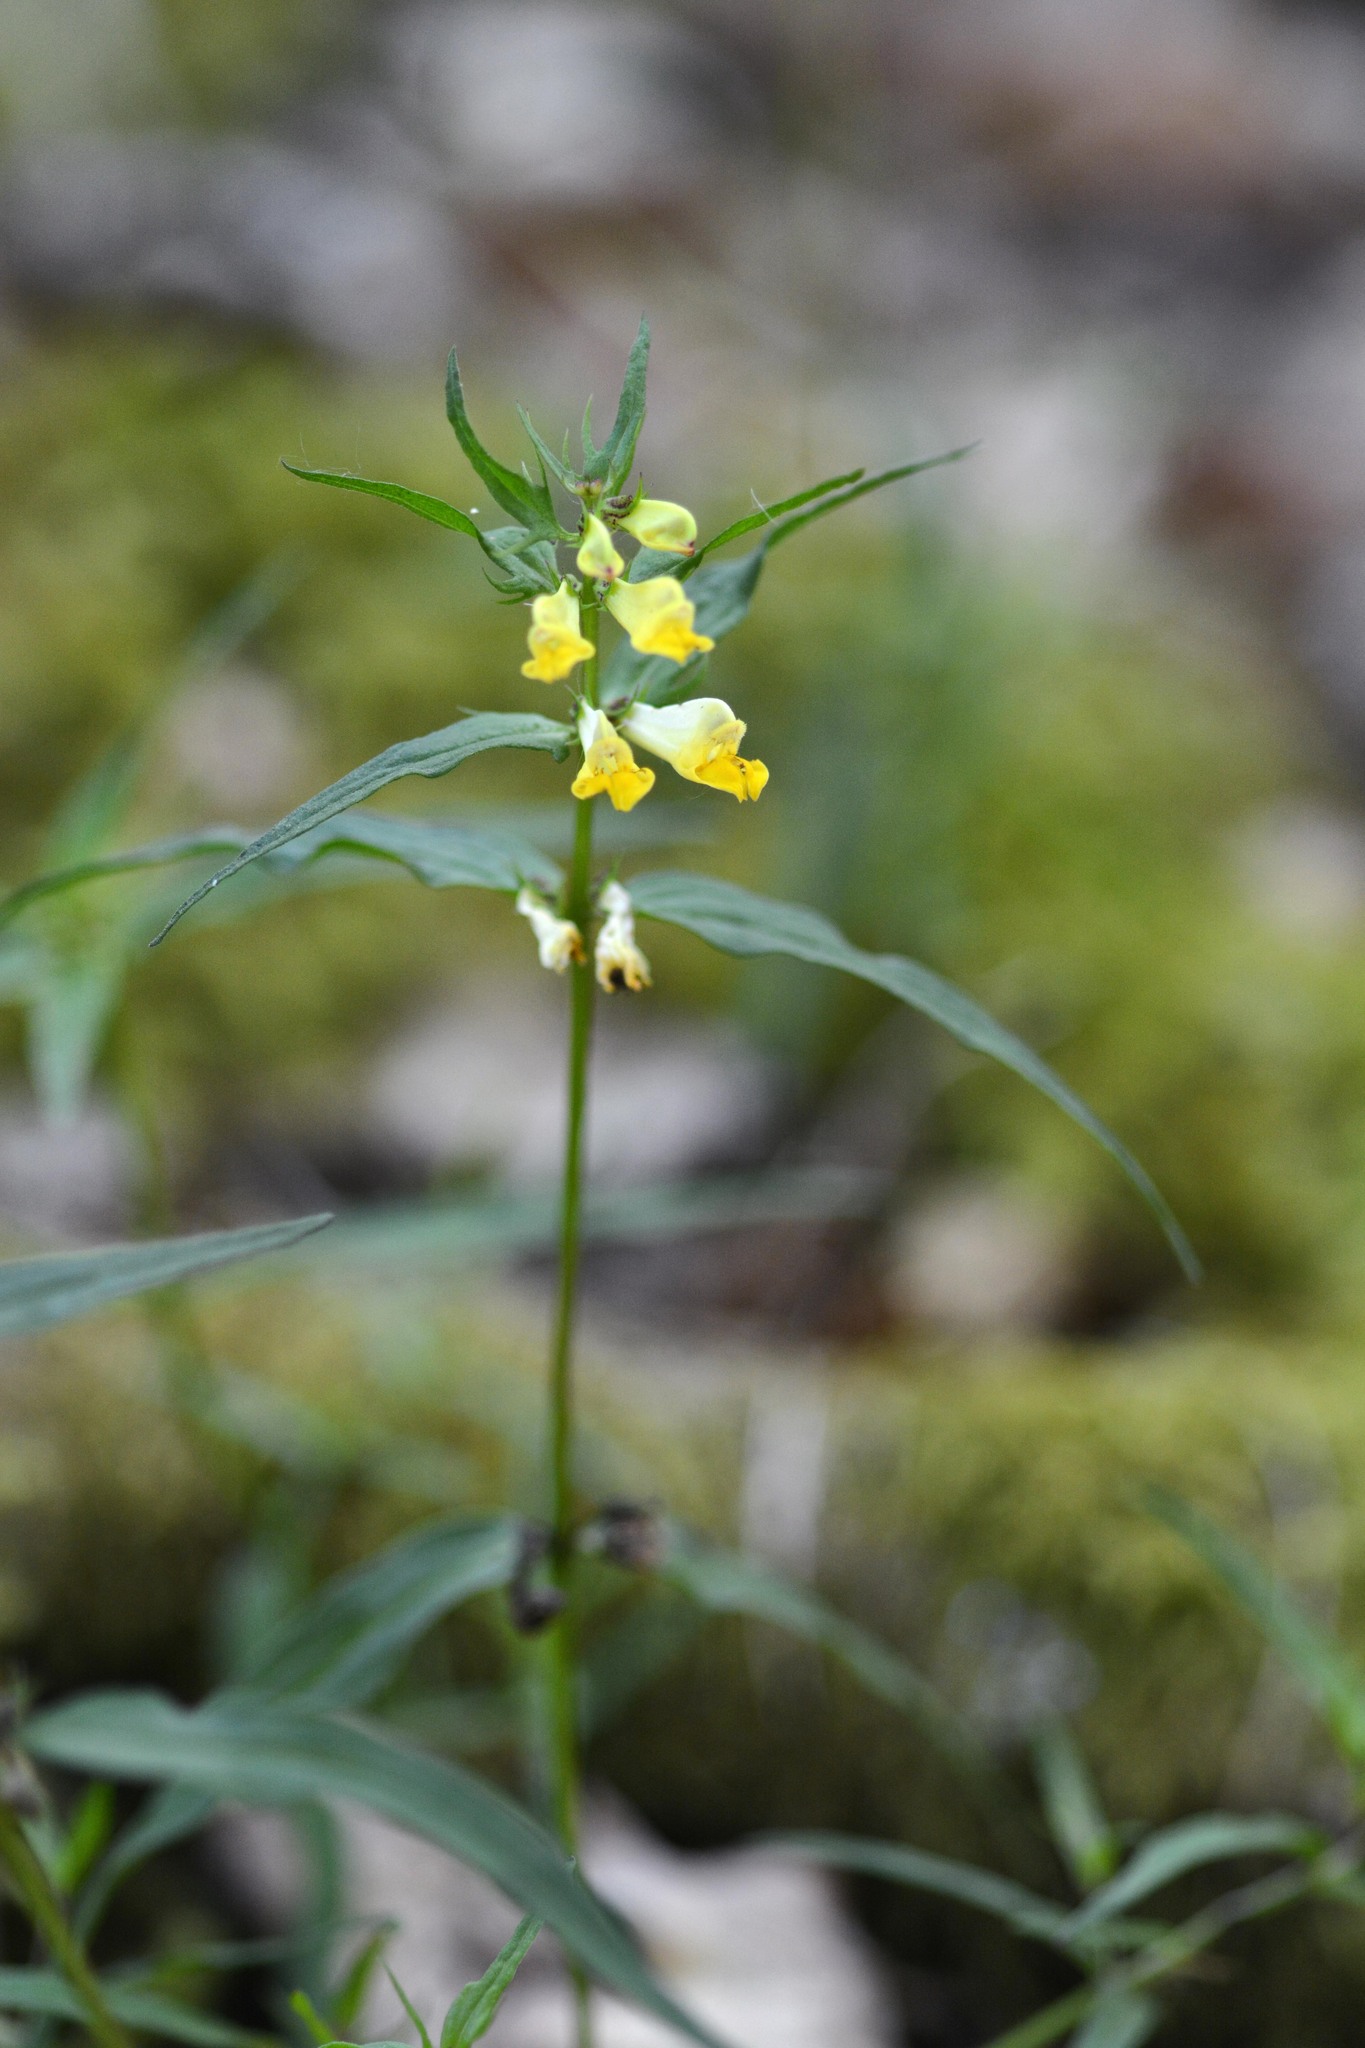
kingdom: Plantae
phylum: Tracheophyta
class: Magnoliopsida
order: Lamiales
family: Orobanchaceae
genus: Melampyrum
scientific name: Melampyrum pratense
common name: Common cow-wheat
